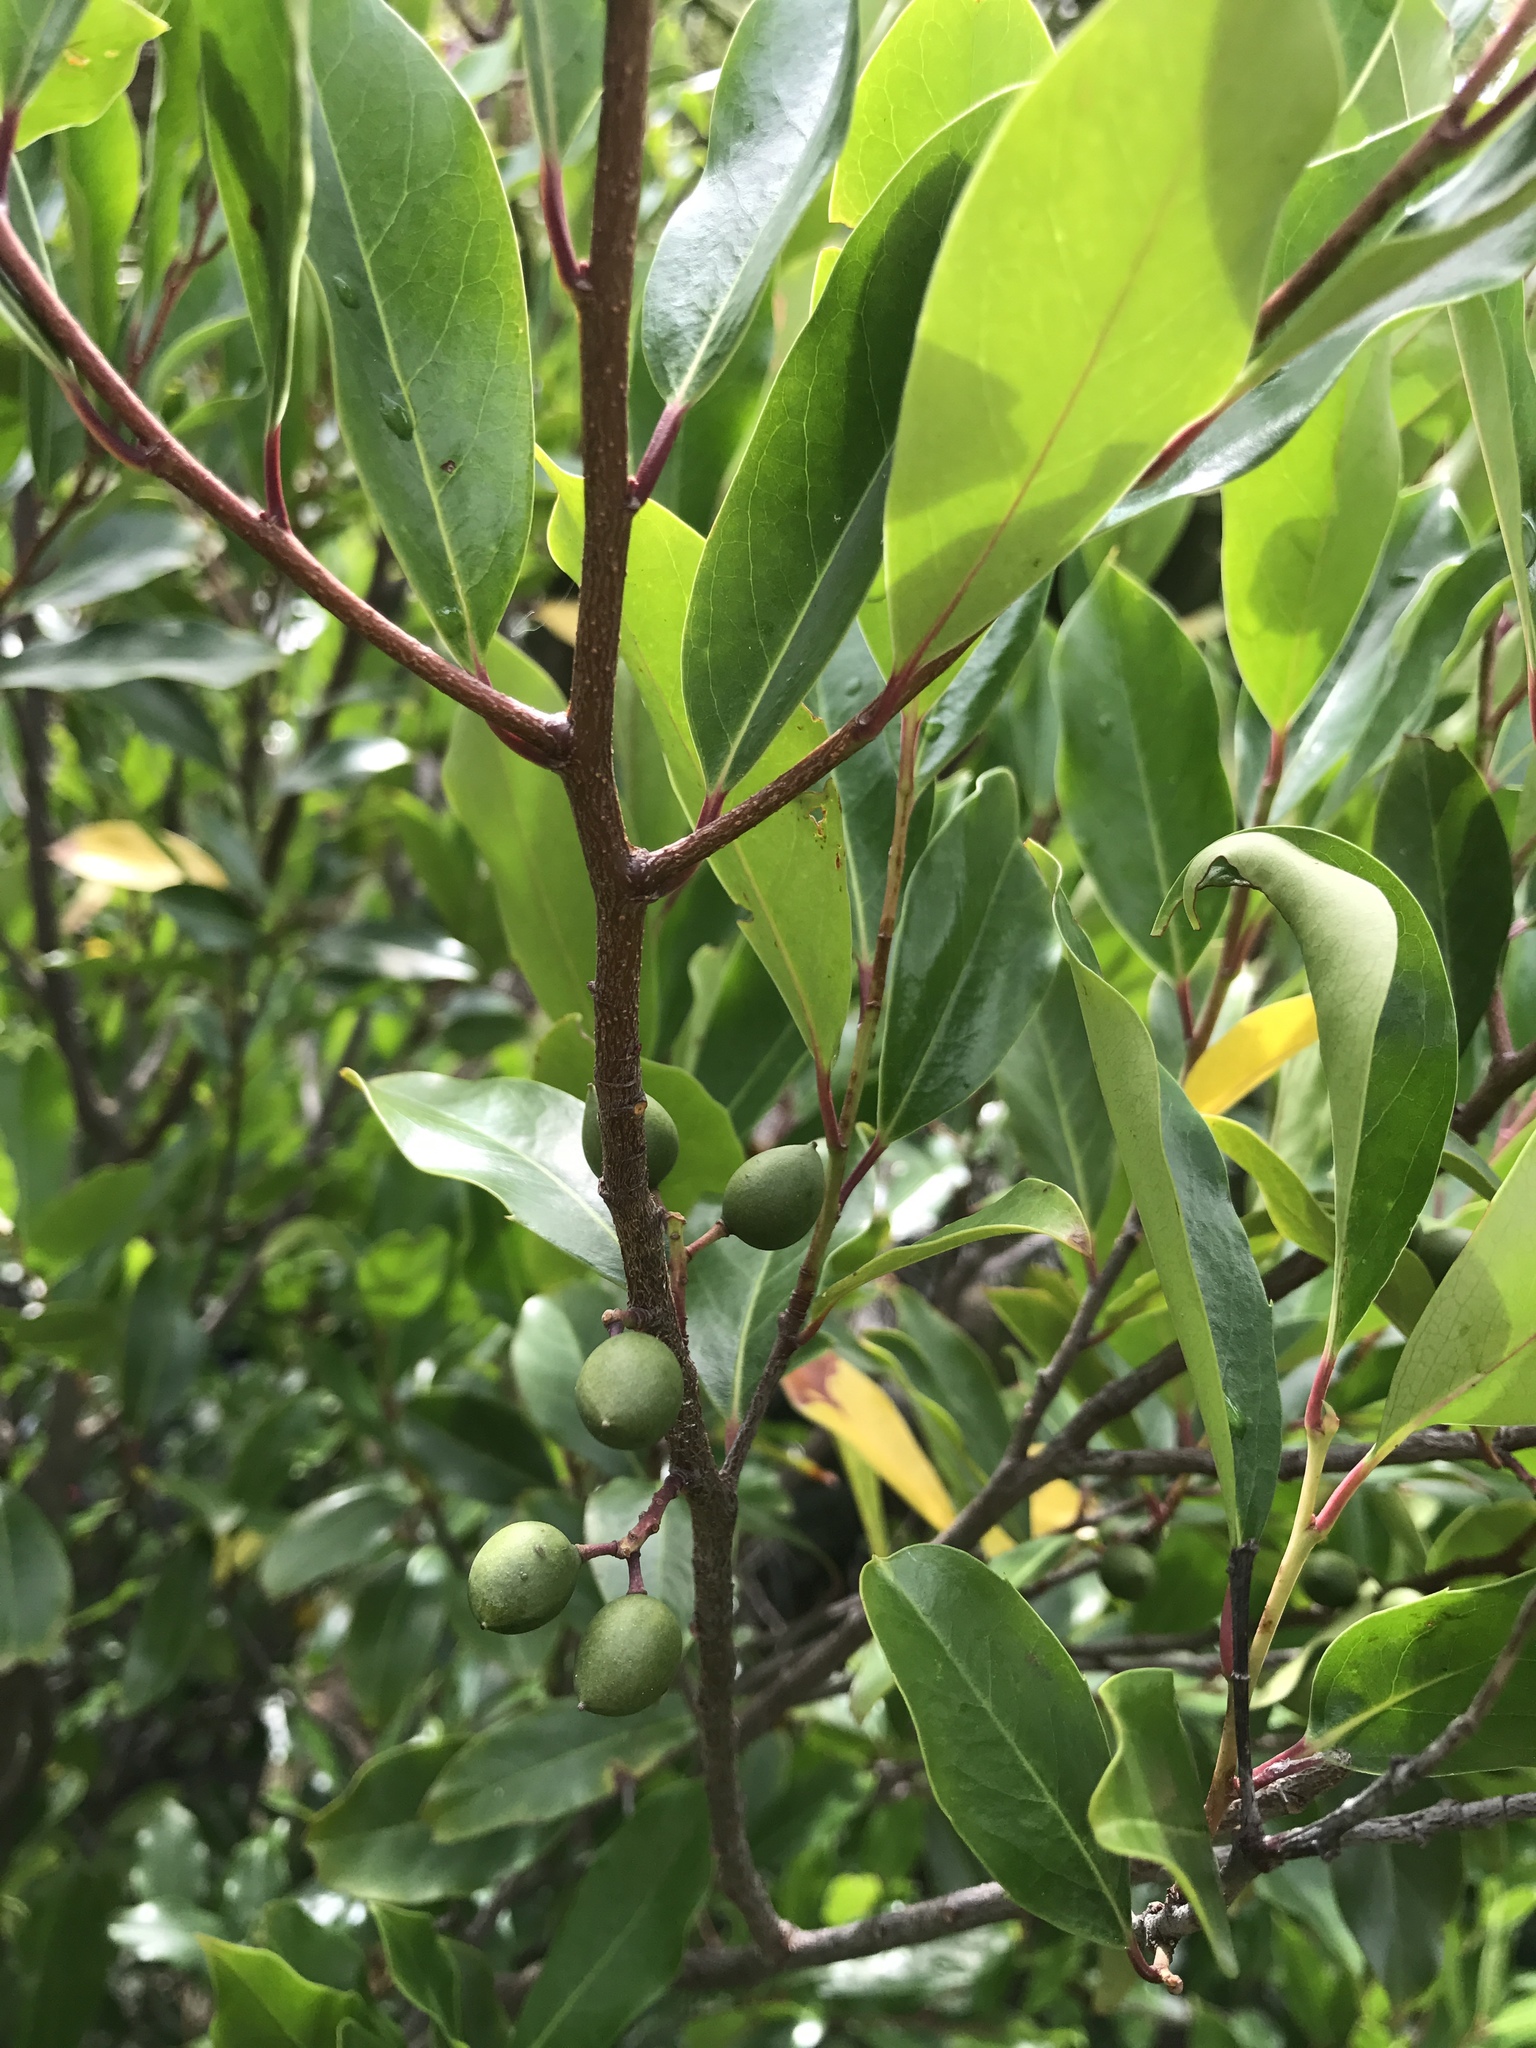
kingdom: Plantae
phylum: Tracheophyta
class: Magnoliopsida
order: Rosales
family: Rosaceae
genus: Prunus
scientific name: Prunus caroliniana
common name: Carolina laurel cherry
